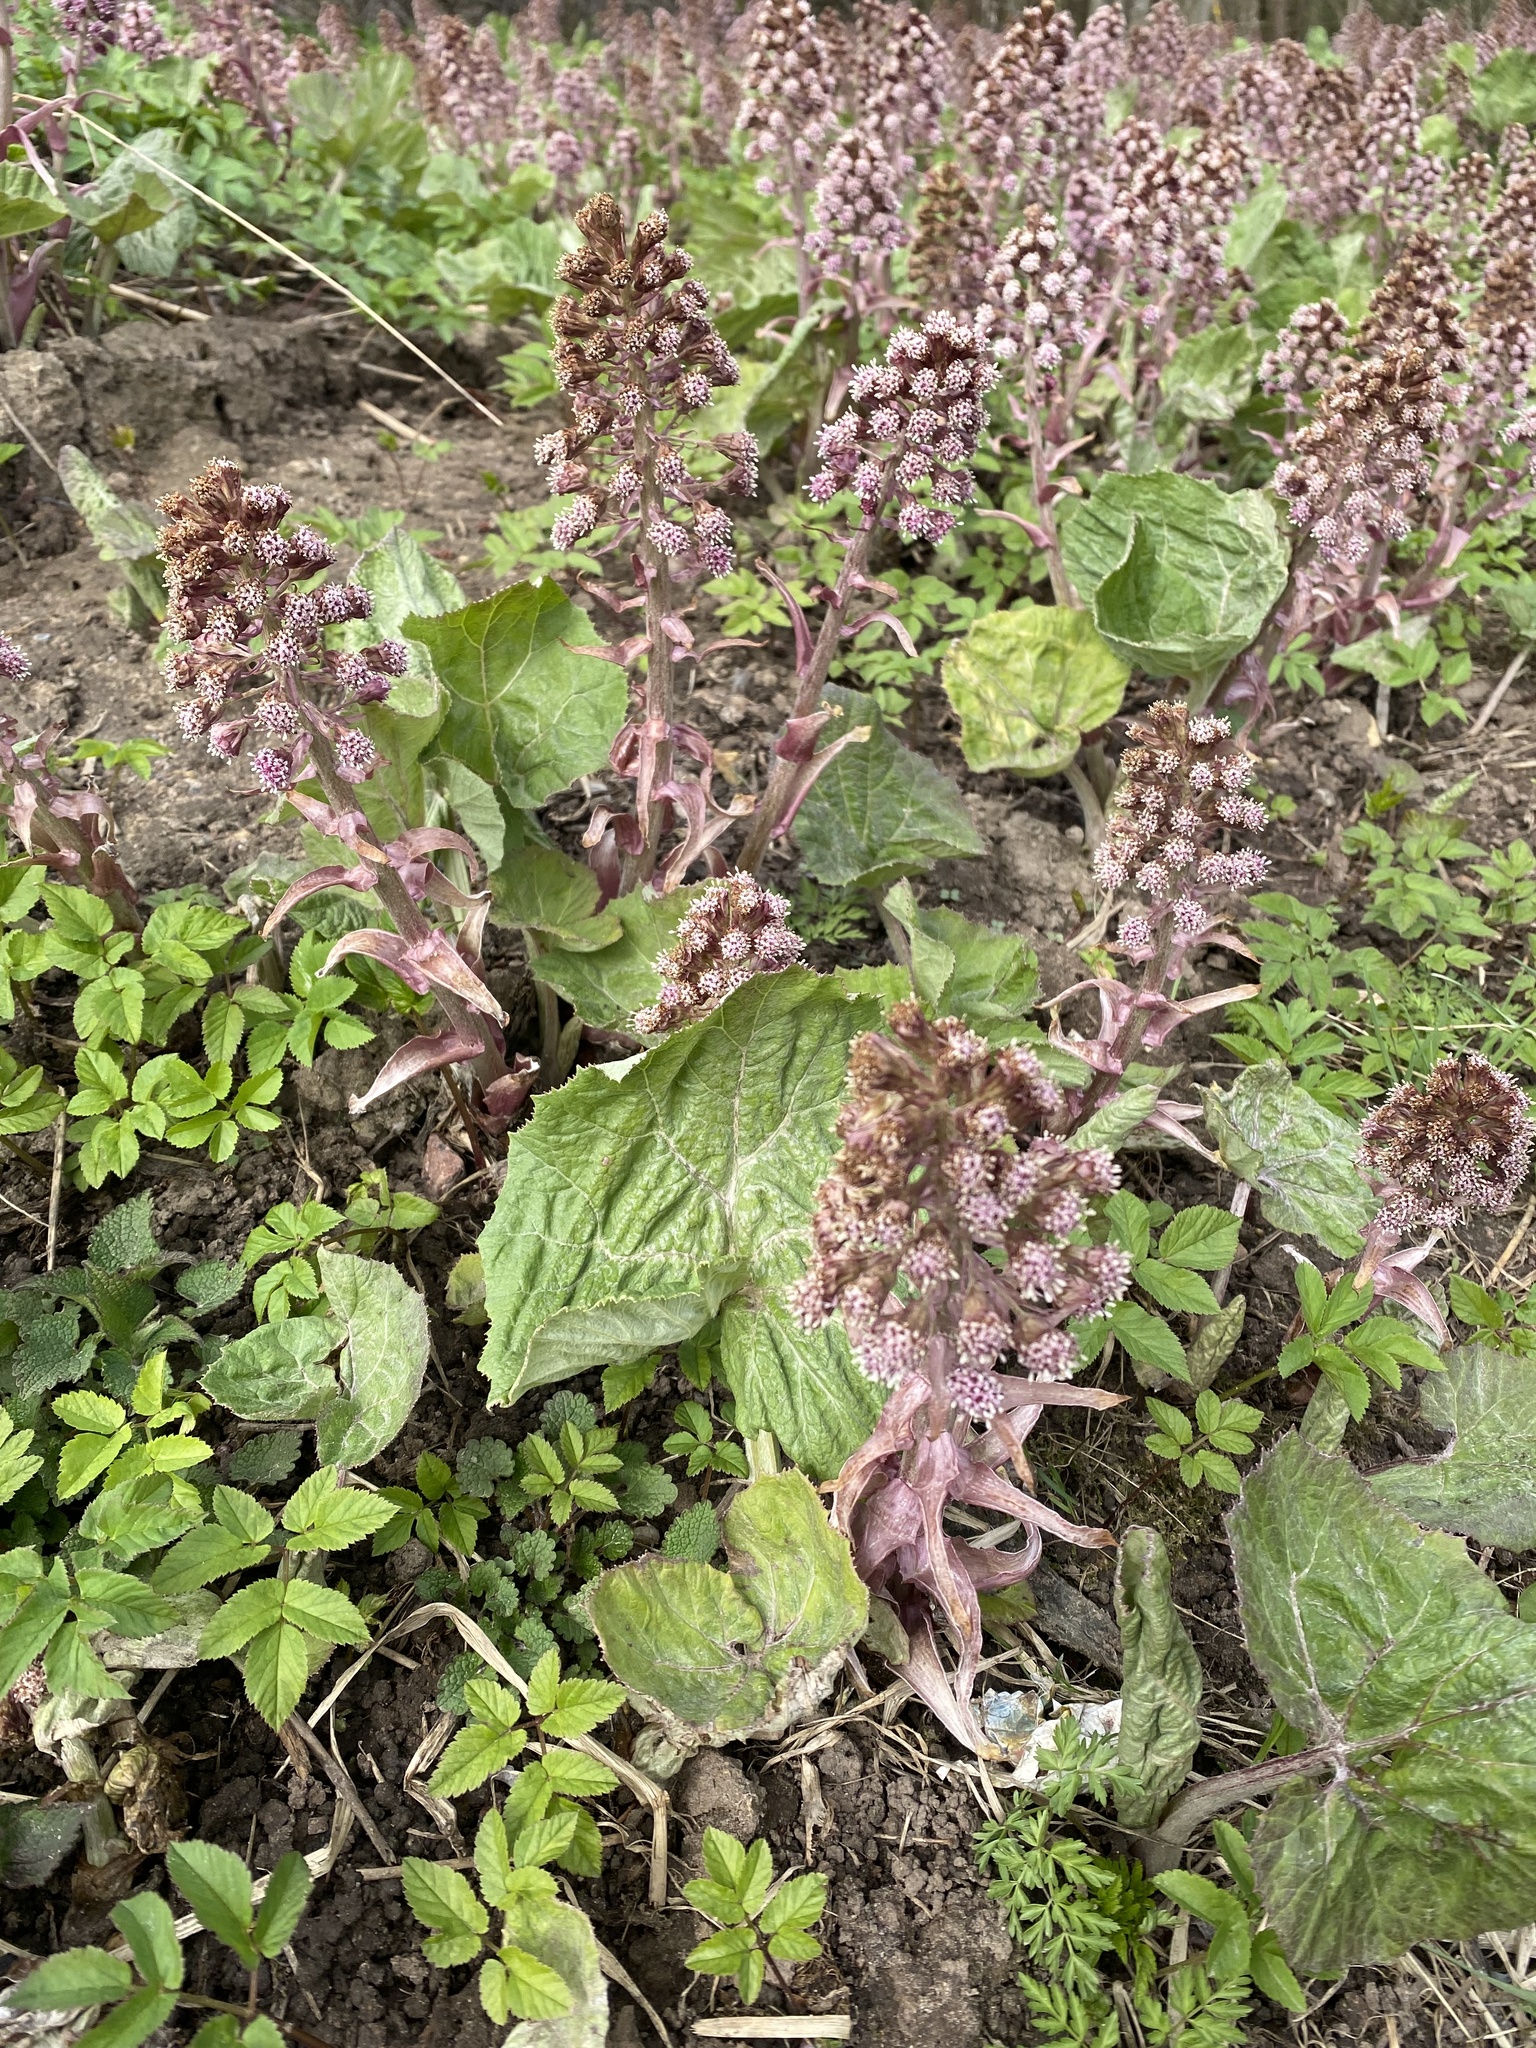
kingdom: Plantae
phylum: Tracheophyta
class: Magnoliopsida
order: Asterales
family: Asteraceae
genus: Petasites
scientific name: Petasites hybridus
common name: Butterbur
